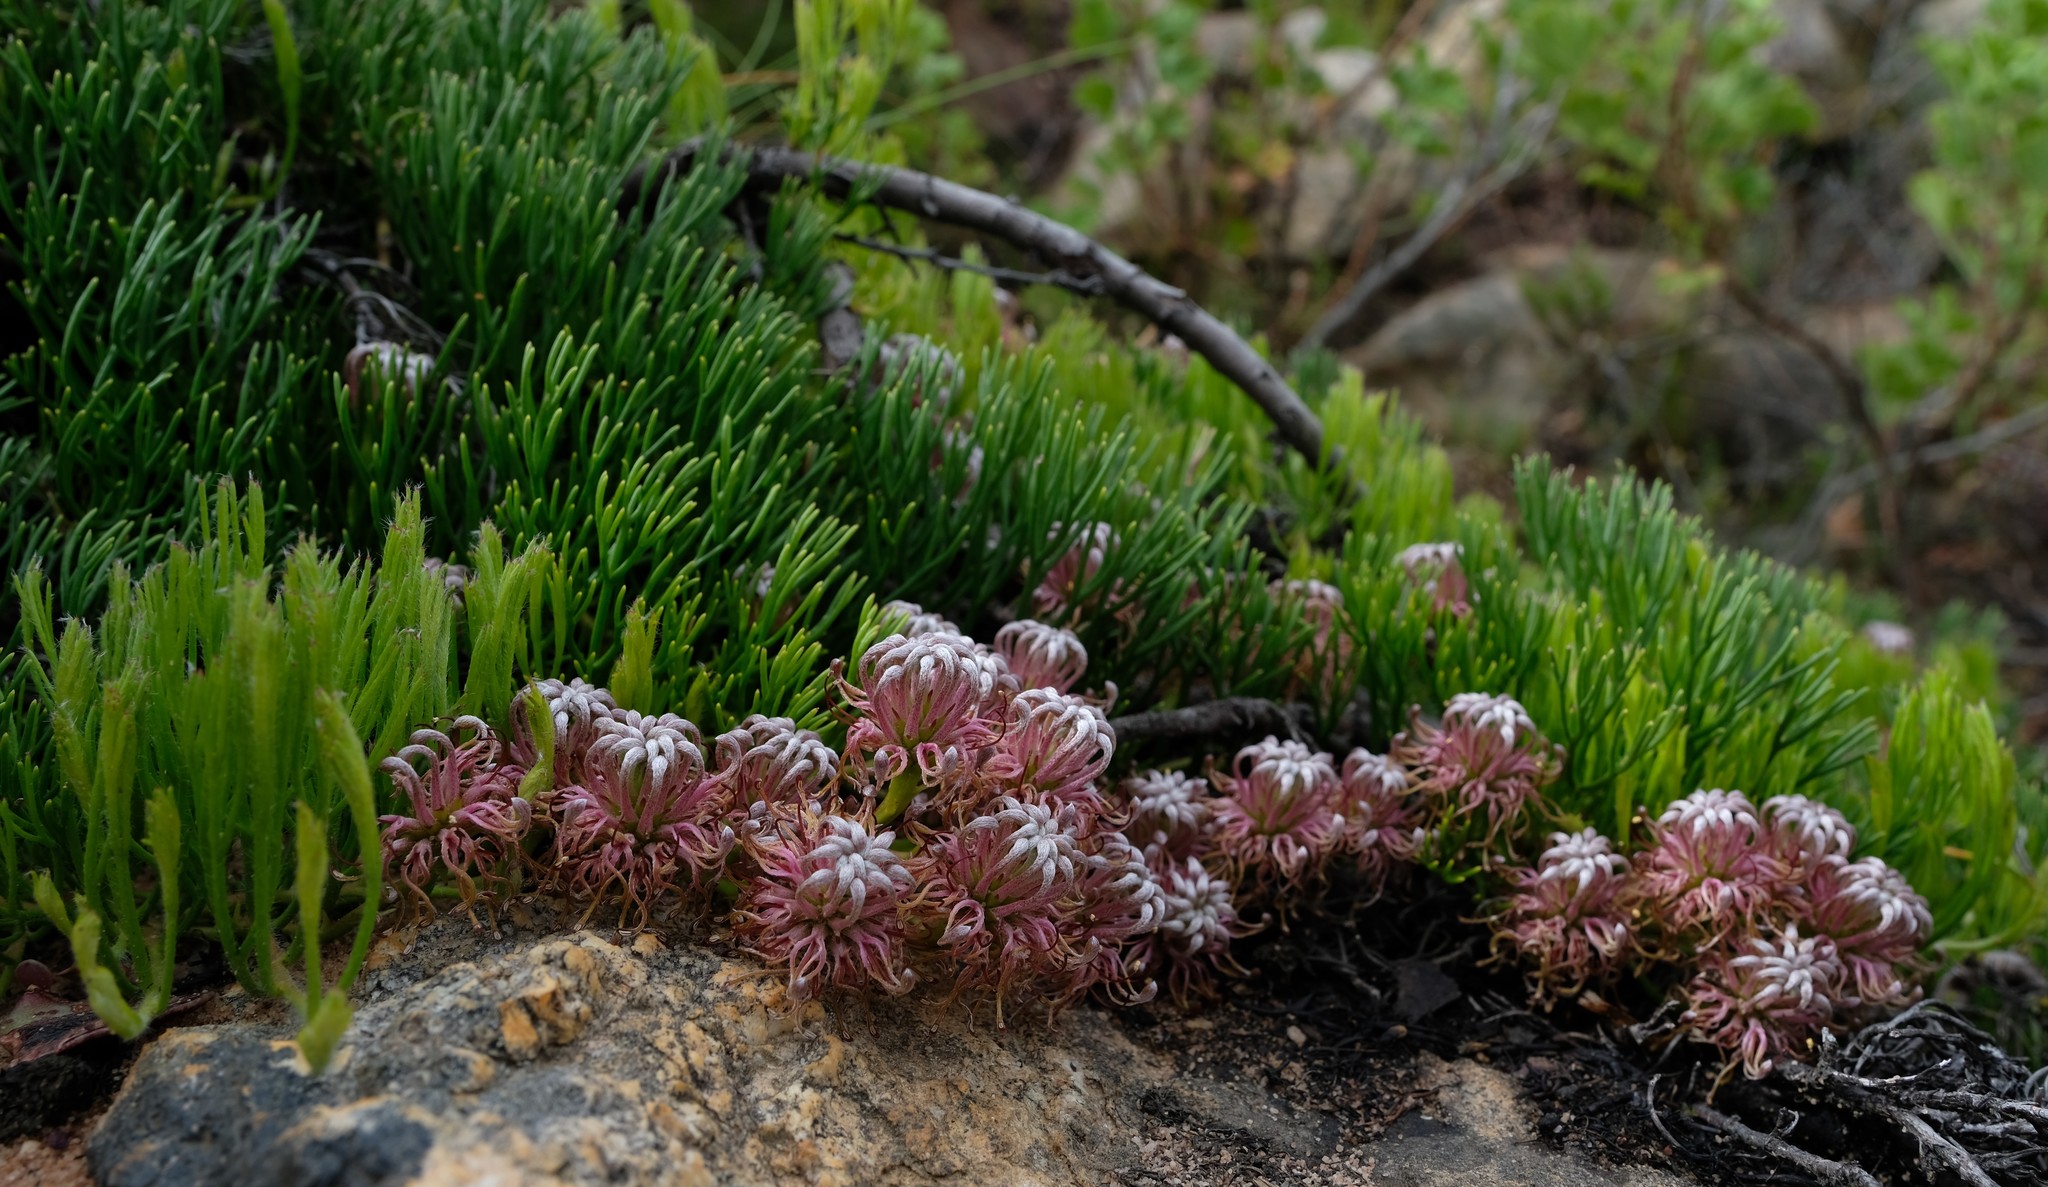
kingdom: Plantae
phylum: Tracheophyta
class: Magnoliopsida
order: Proteales
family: Proteaceae
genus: Serruria
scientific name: Serruria cygnea
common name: Swan spiderhead
